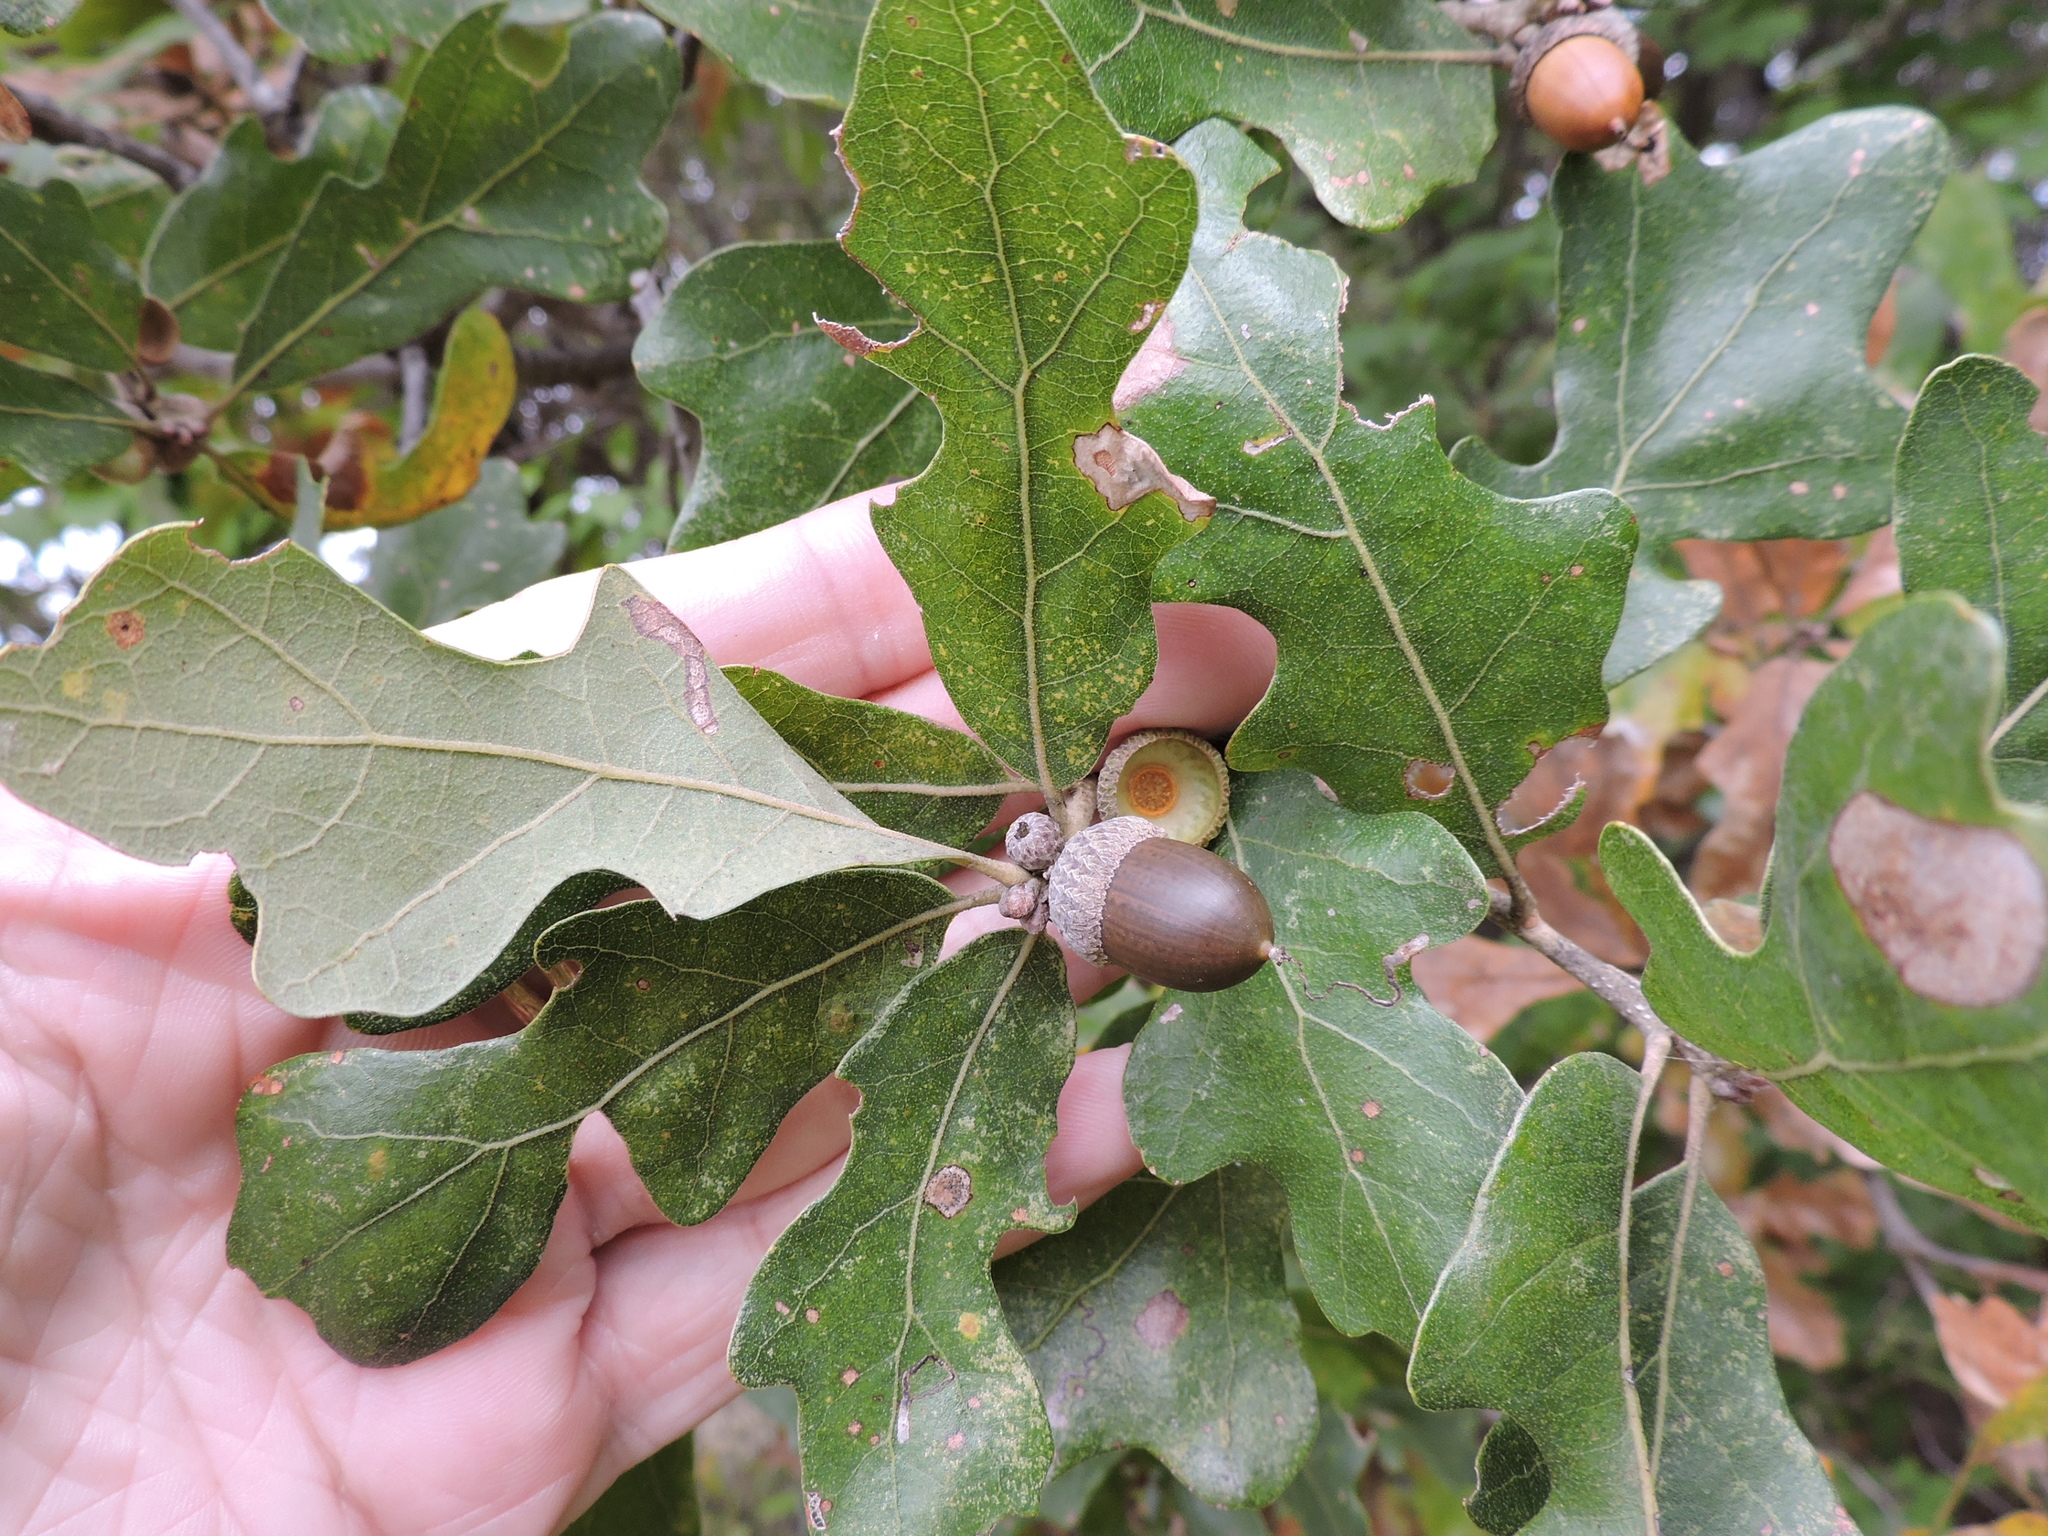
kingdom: Plantae
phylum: Tracheophyta
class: Magnoliopsida
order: Fagales
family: Fagaceae
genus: Quercus
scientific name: Quercus stellata
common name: Post oak
